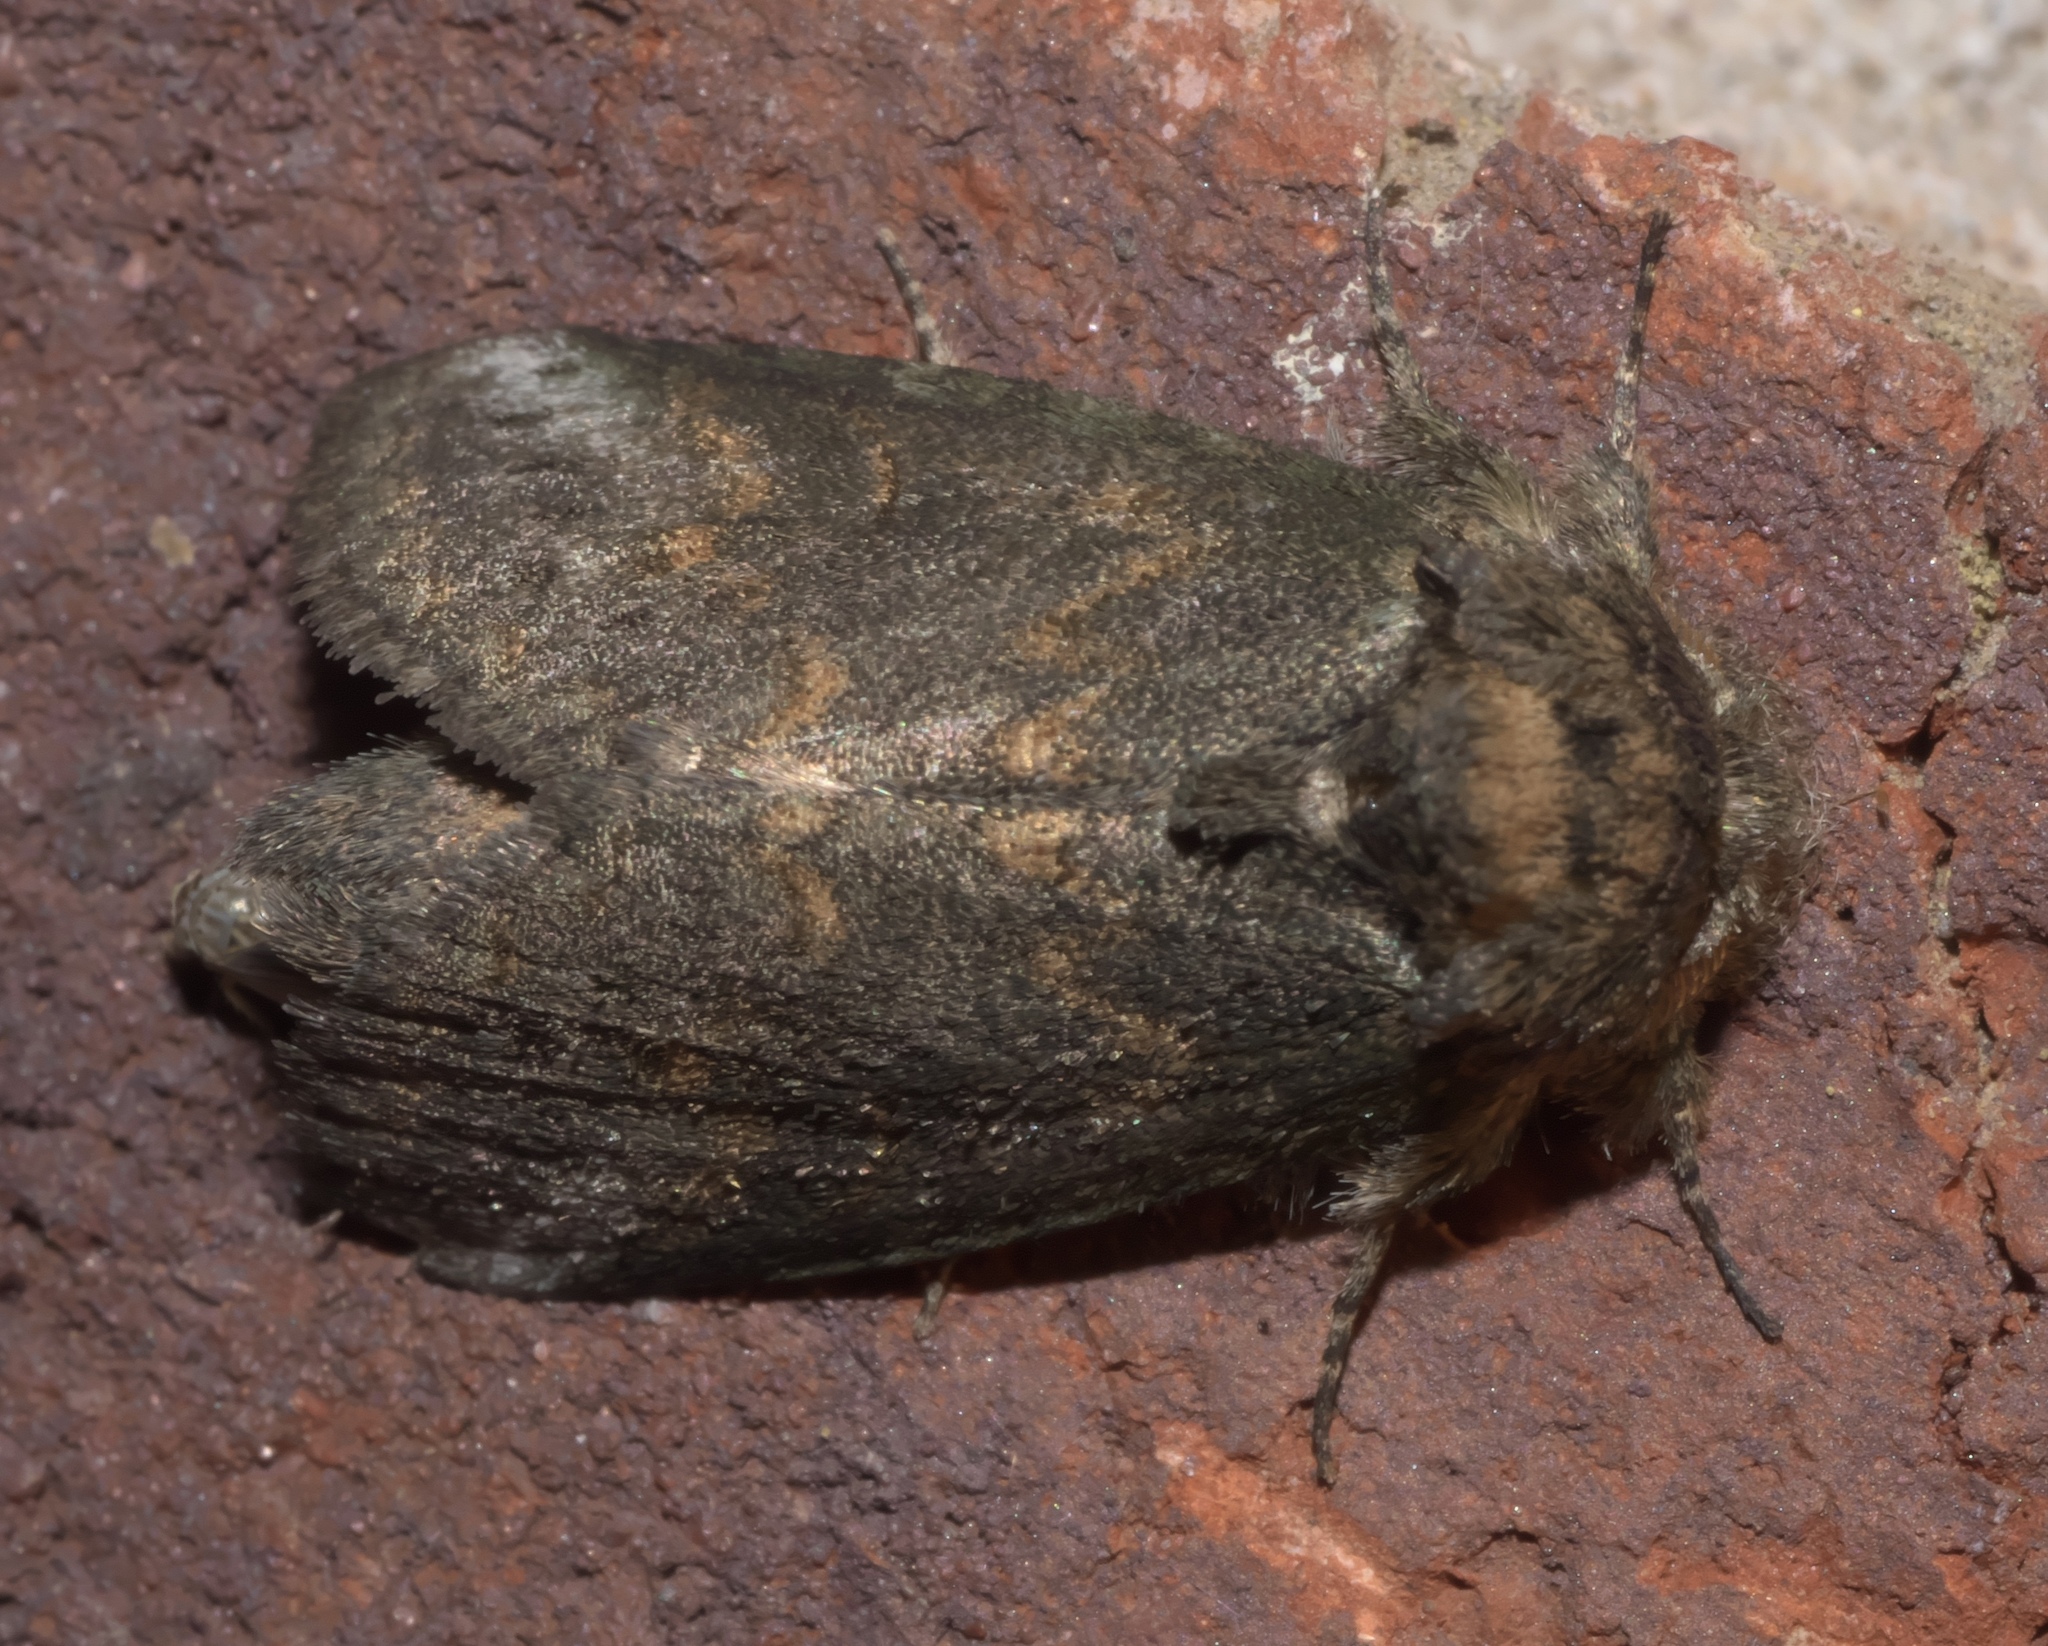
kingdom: Animalia
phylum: Arthropoda
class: Insecta
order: Lepidoptera
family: Notodontidae
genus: Rifargia
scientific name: Rifargia
